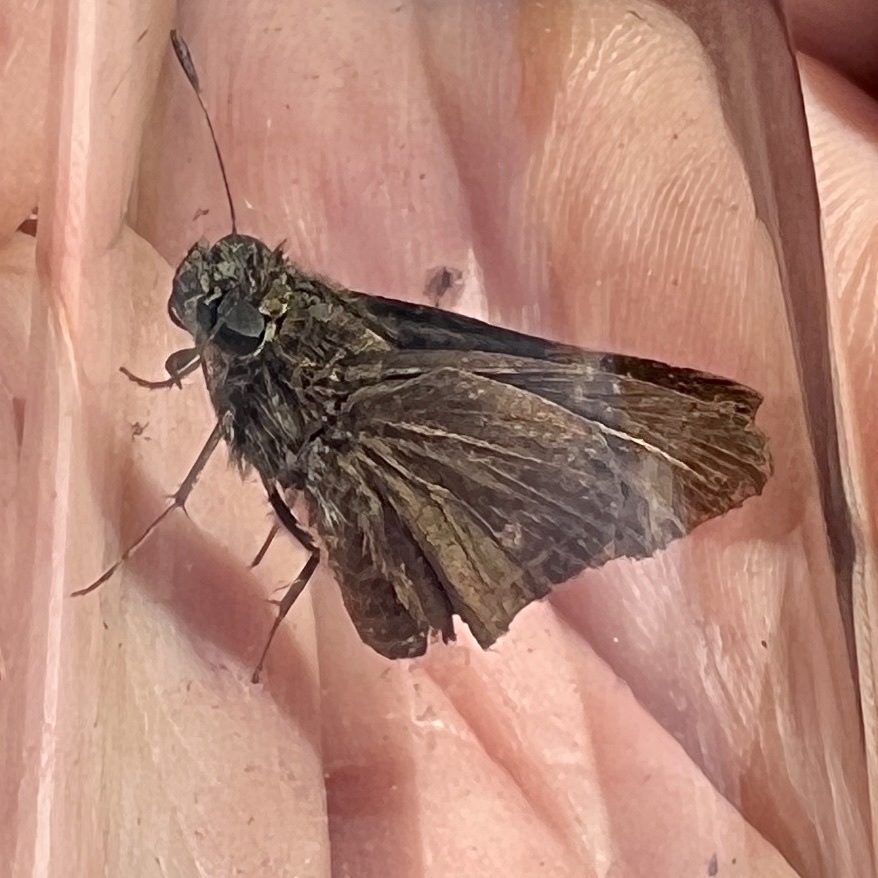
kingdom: Animalia
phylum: Arthropoda
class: Insecta
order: Lepidoptera
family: Hesperiidae
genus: Euphyes
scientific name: Euphyes vestris
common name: Dun skipper
